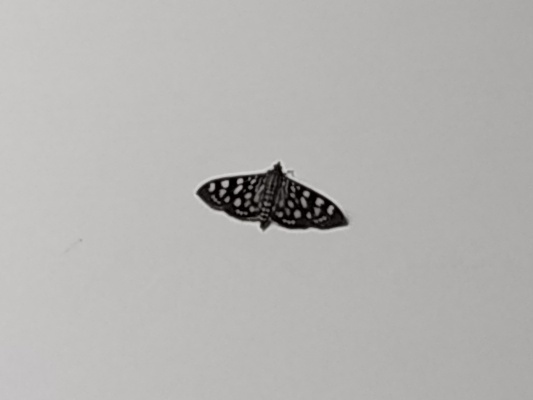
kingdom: Animalia
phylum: Arthropoda
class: Insecta
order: Lepidoptera
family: Crambidae
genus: Pygospila
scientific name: Pygospila tyres
